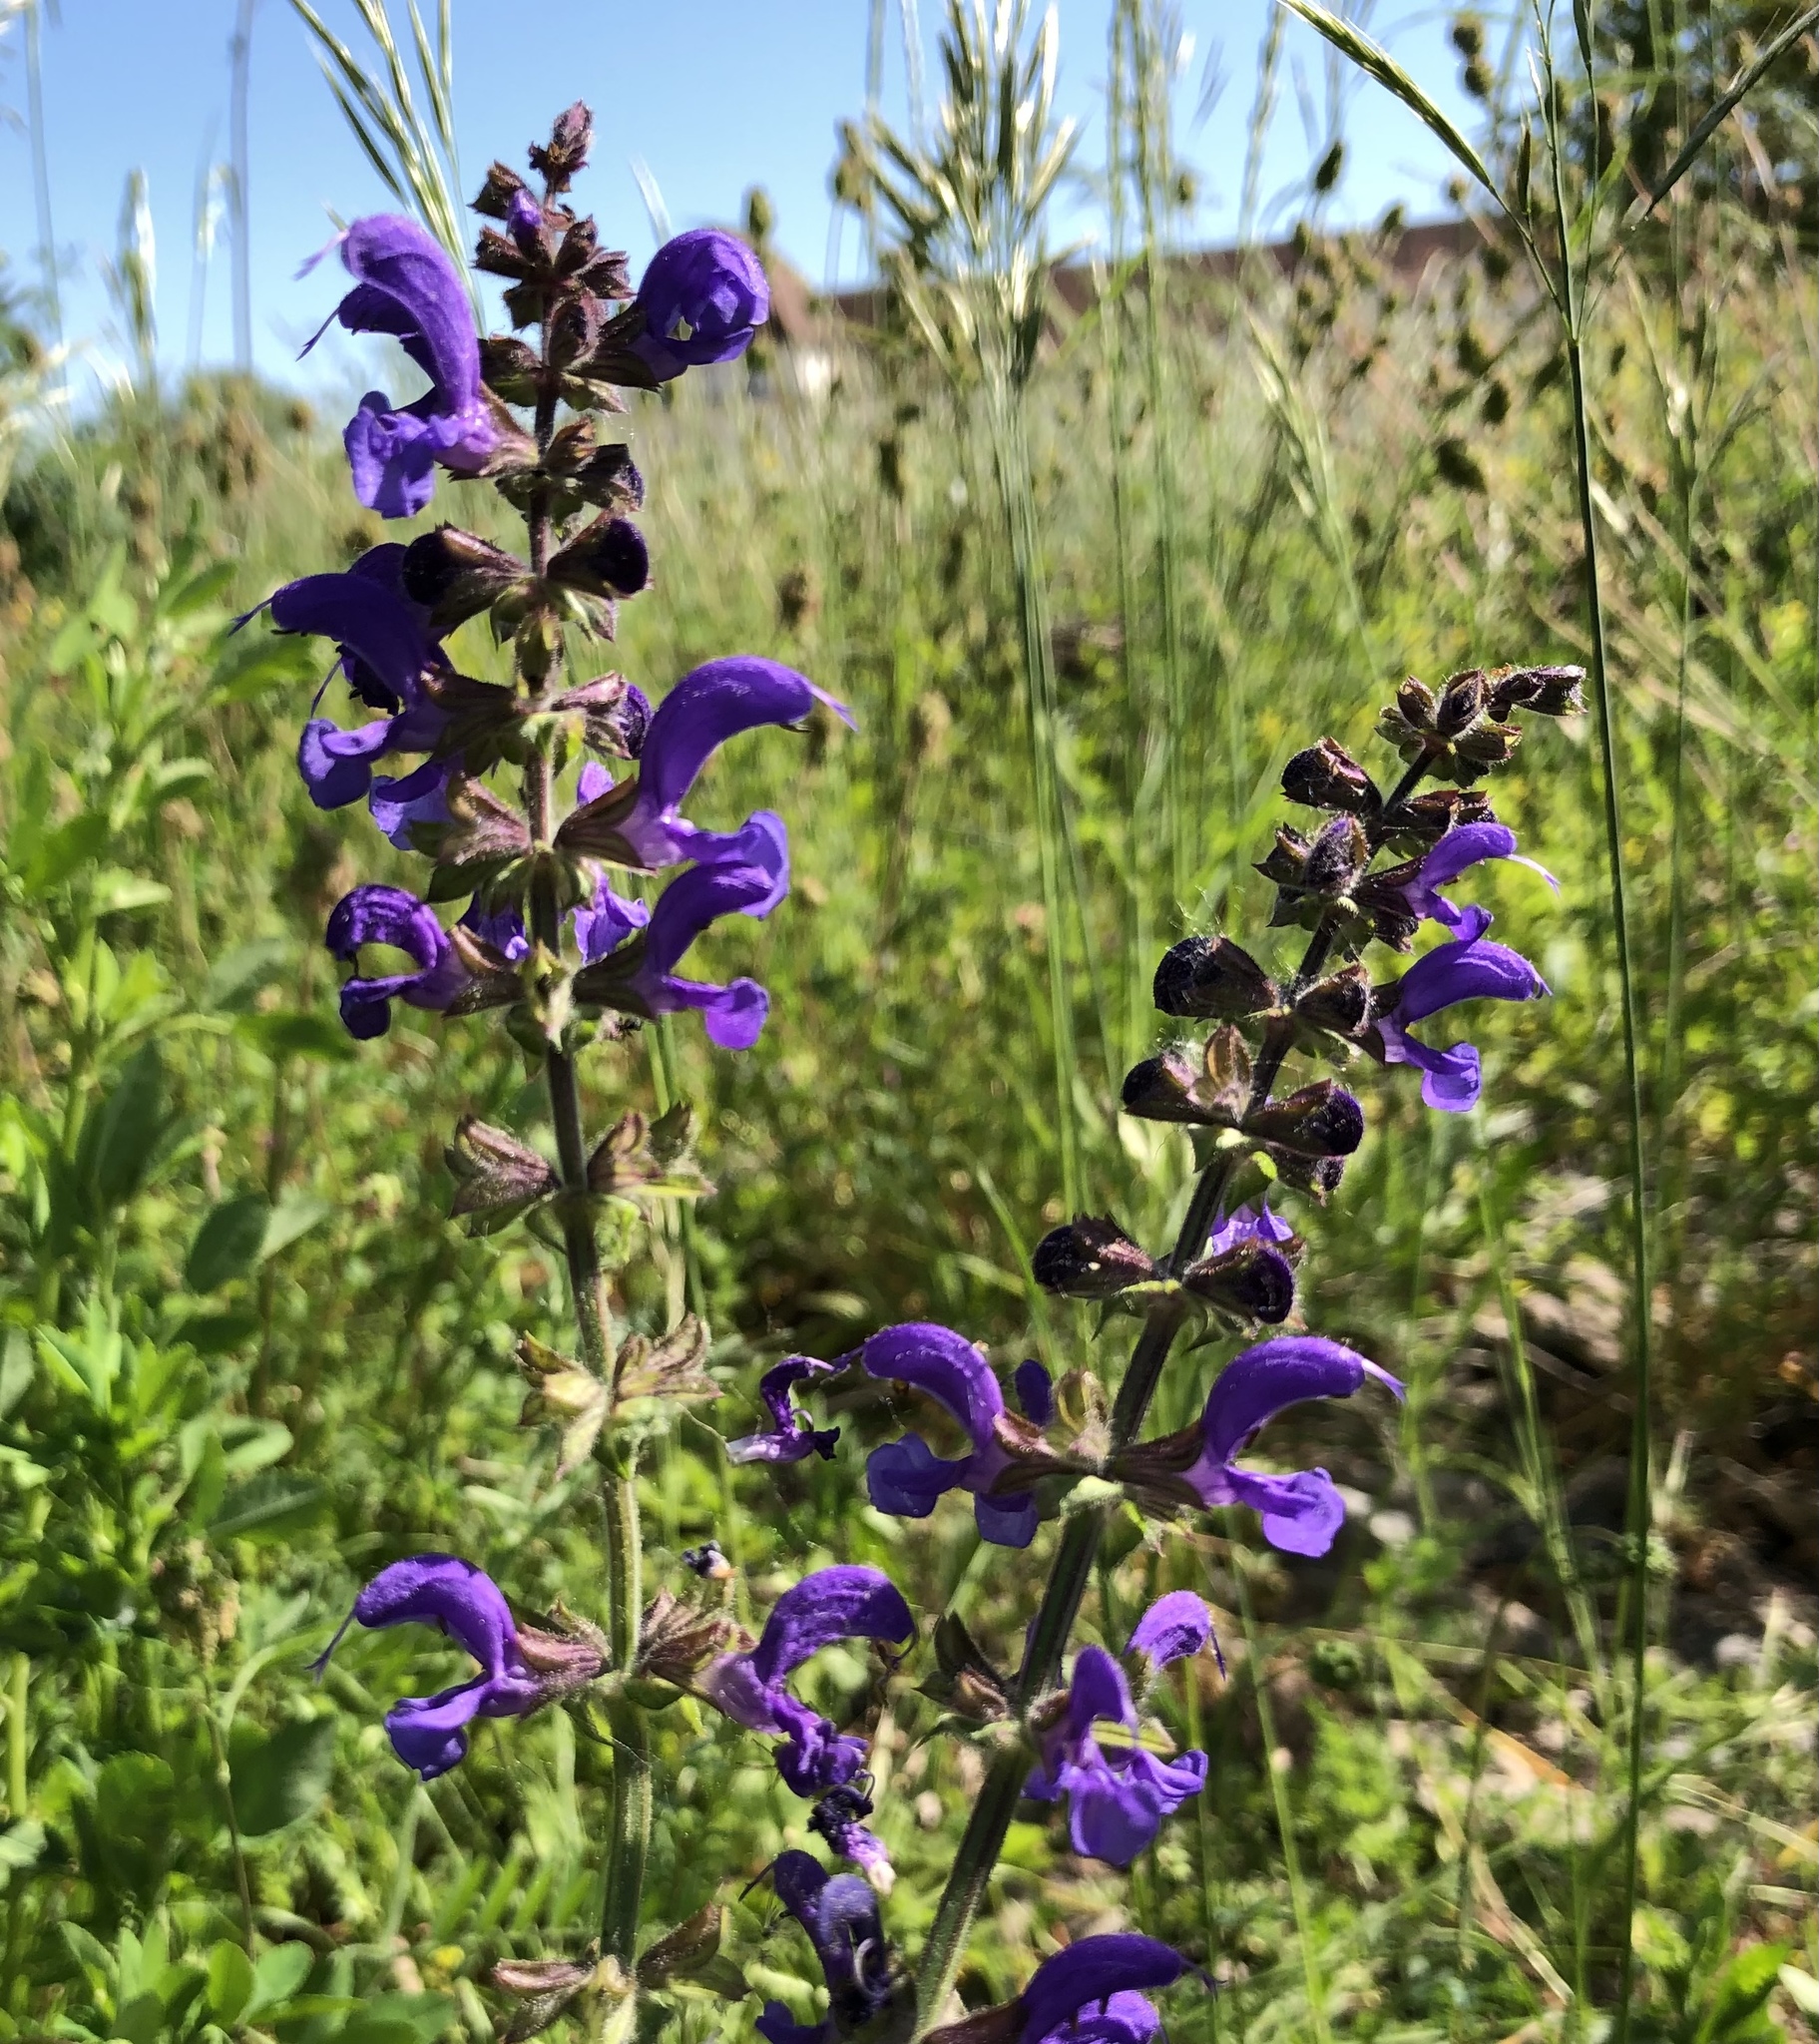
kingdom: Plantae
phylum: Tracheophyta
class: Magnoliopsida
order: Lamiales
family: Lamiaceae
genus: Salvia
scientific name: Salvia pratensis
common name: Meadow sage
